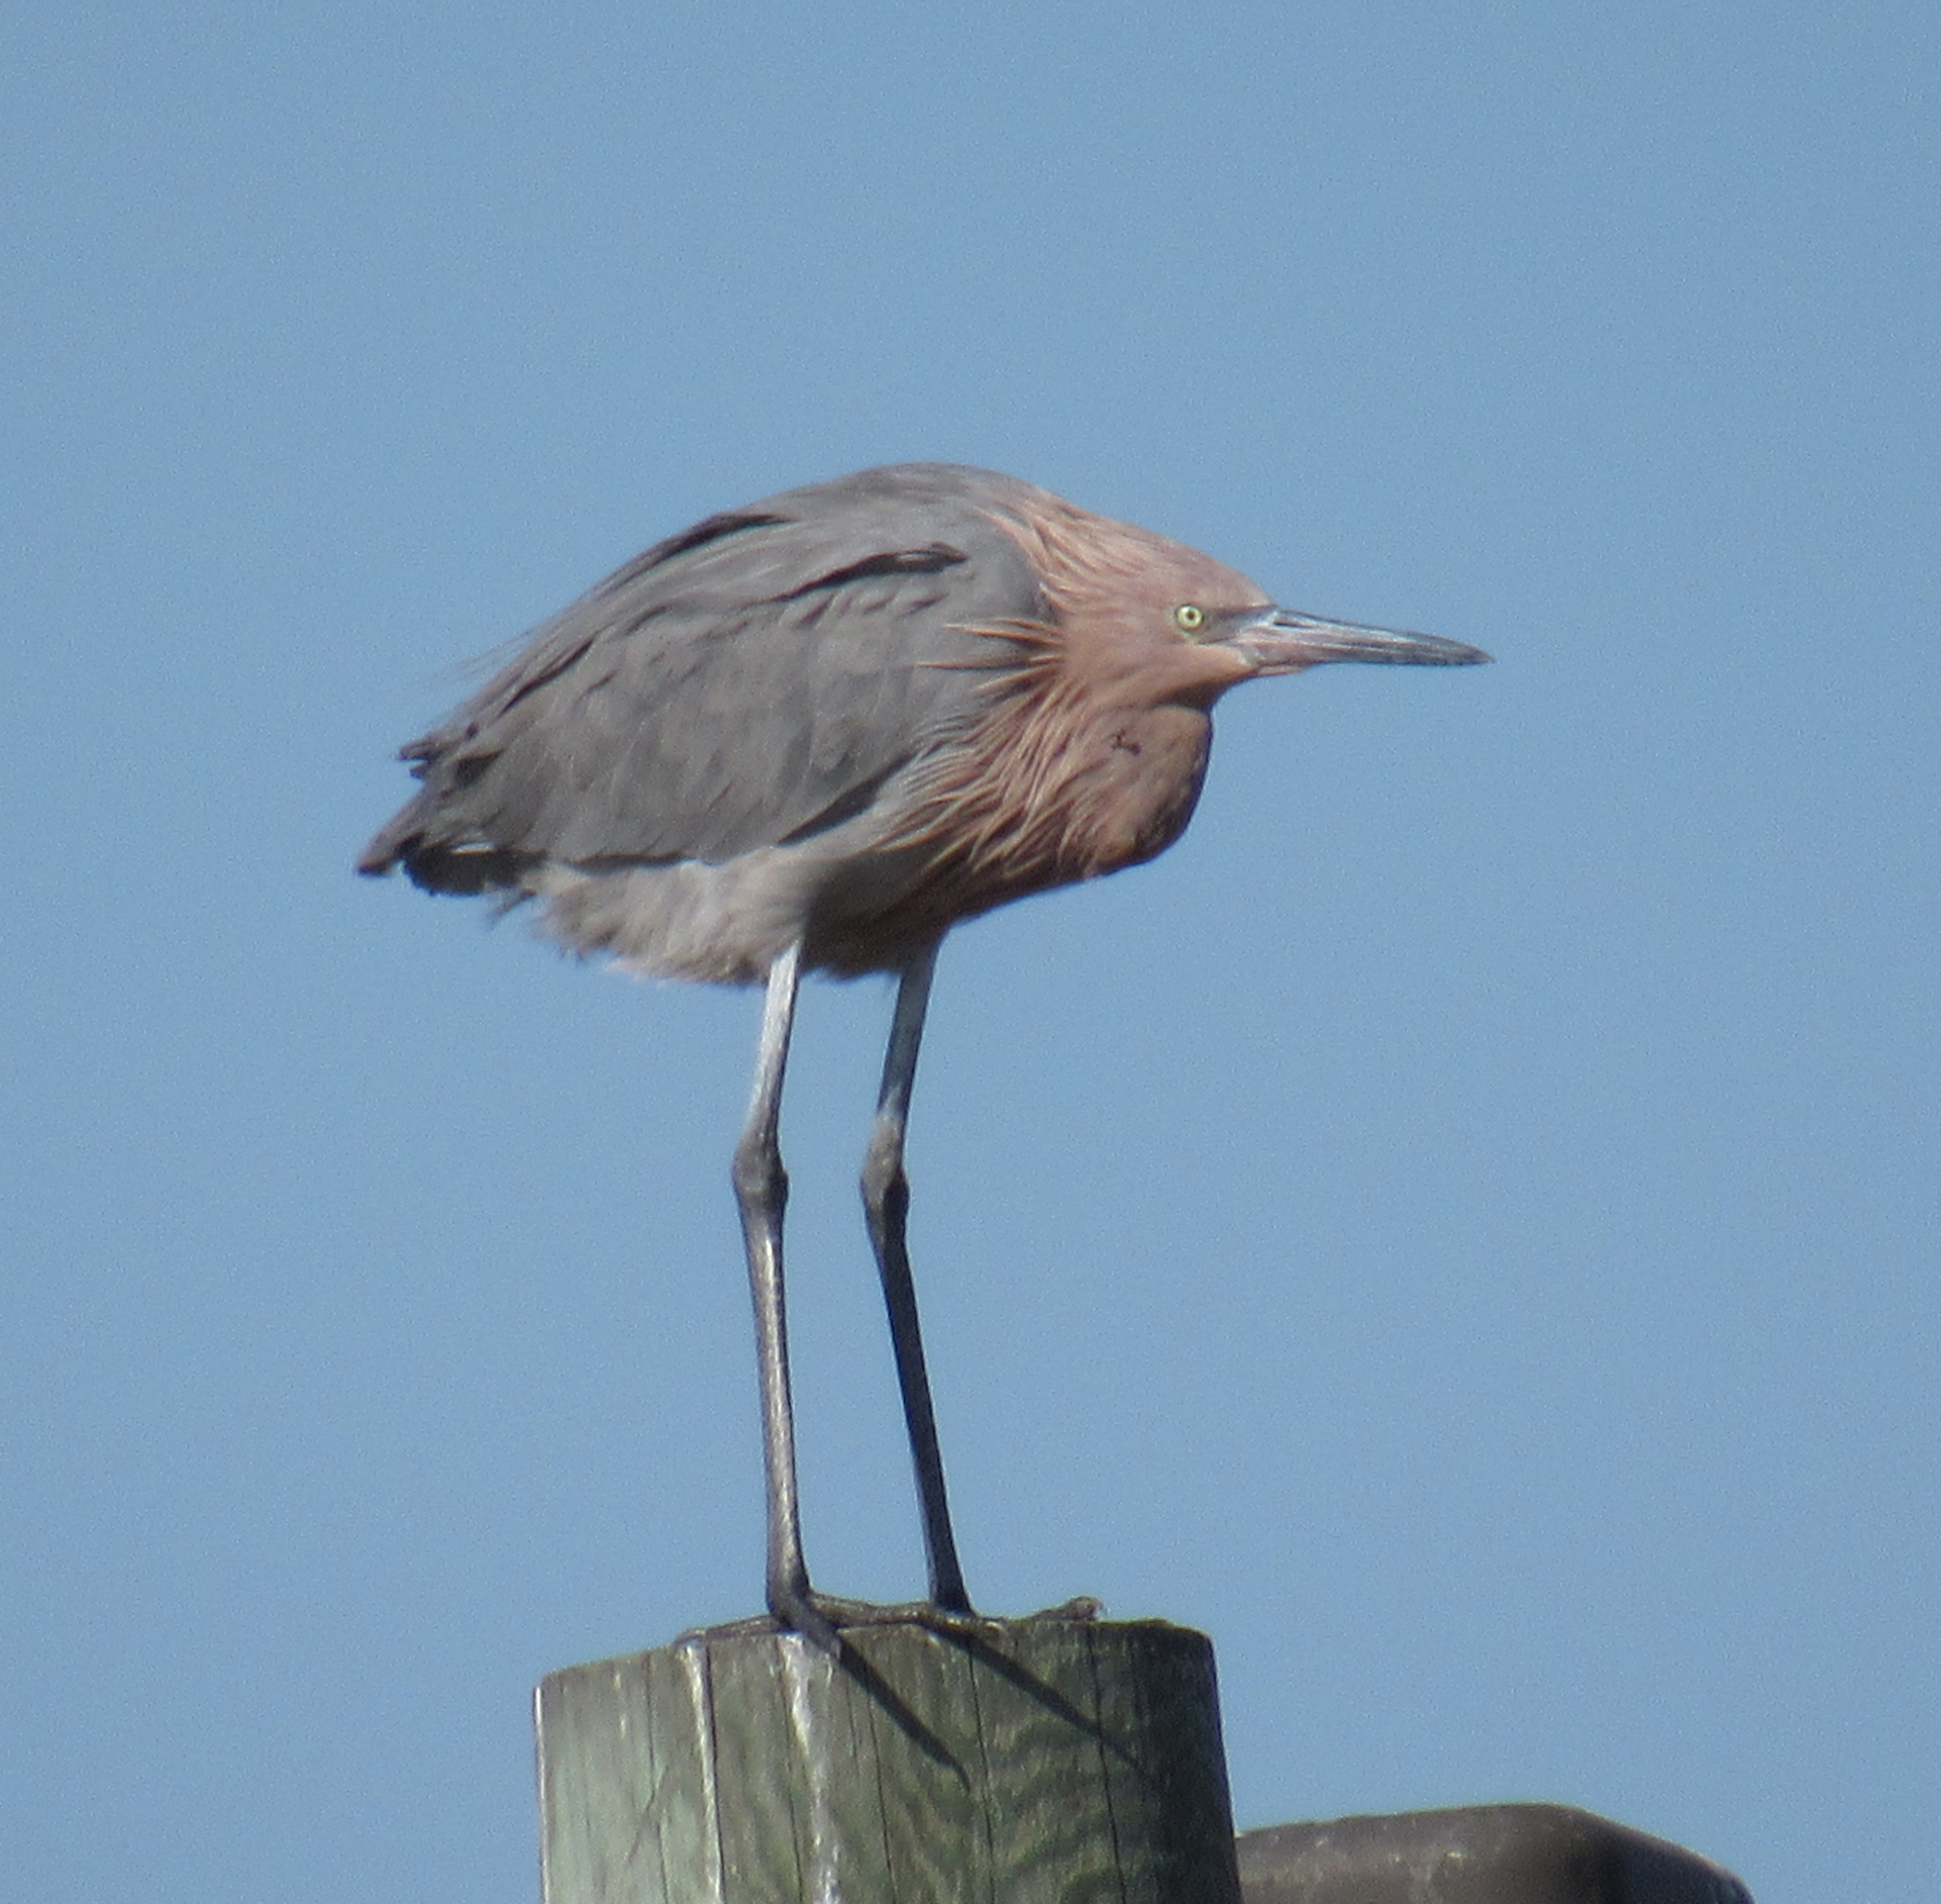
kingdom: Animalia
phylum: Chordata
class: Aves
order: Pelecaniformes
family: Ardeidae
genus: Egretta
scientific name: Egretta rufescens
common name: Reddish egret
